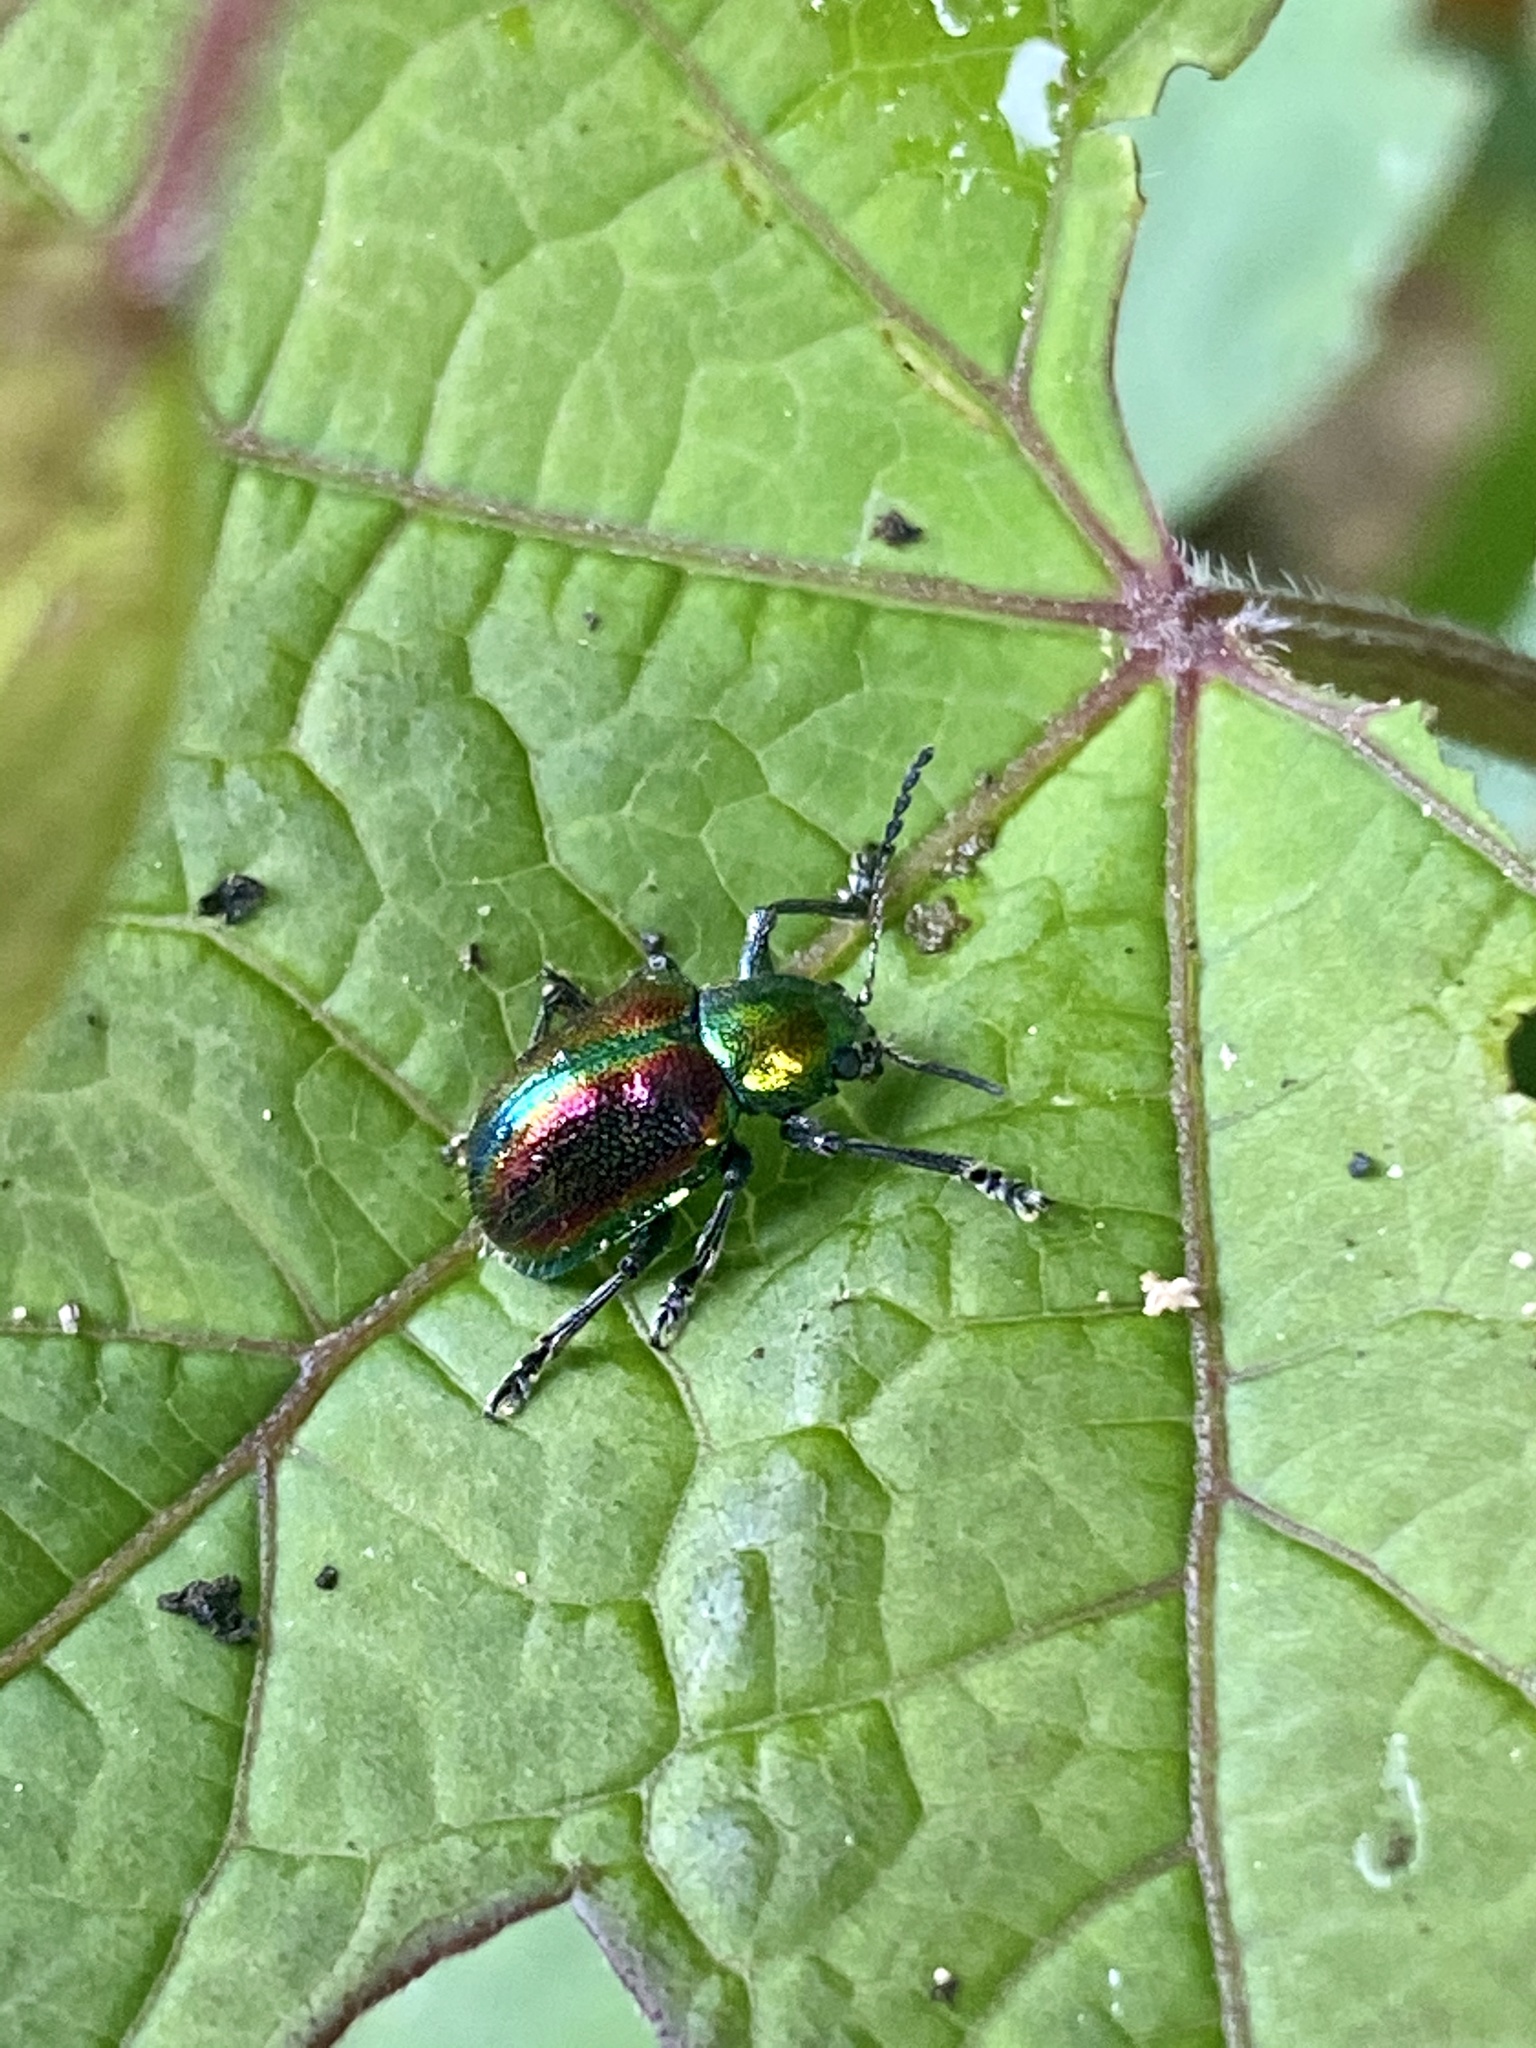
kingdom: Animalia
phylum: Arthropoda
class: Insecta
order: Coleoptera
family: Chrysomelidae
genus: Acrothinium
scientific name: Acrothinium gaschkevitchii
